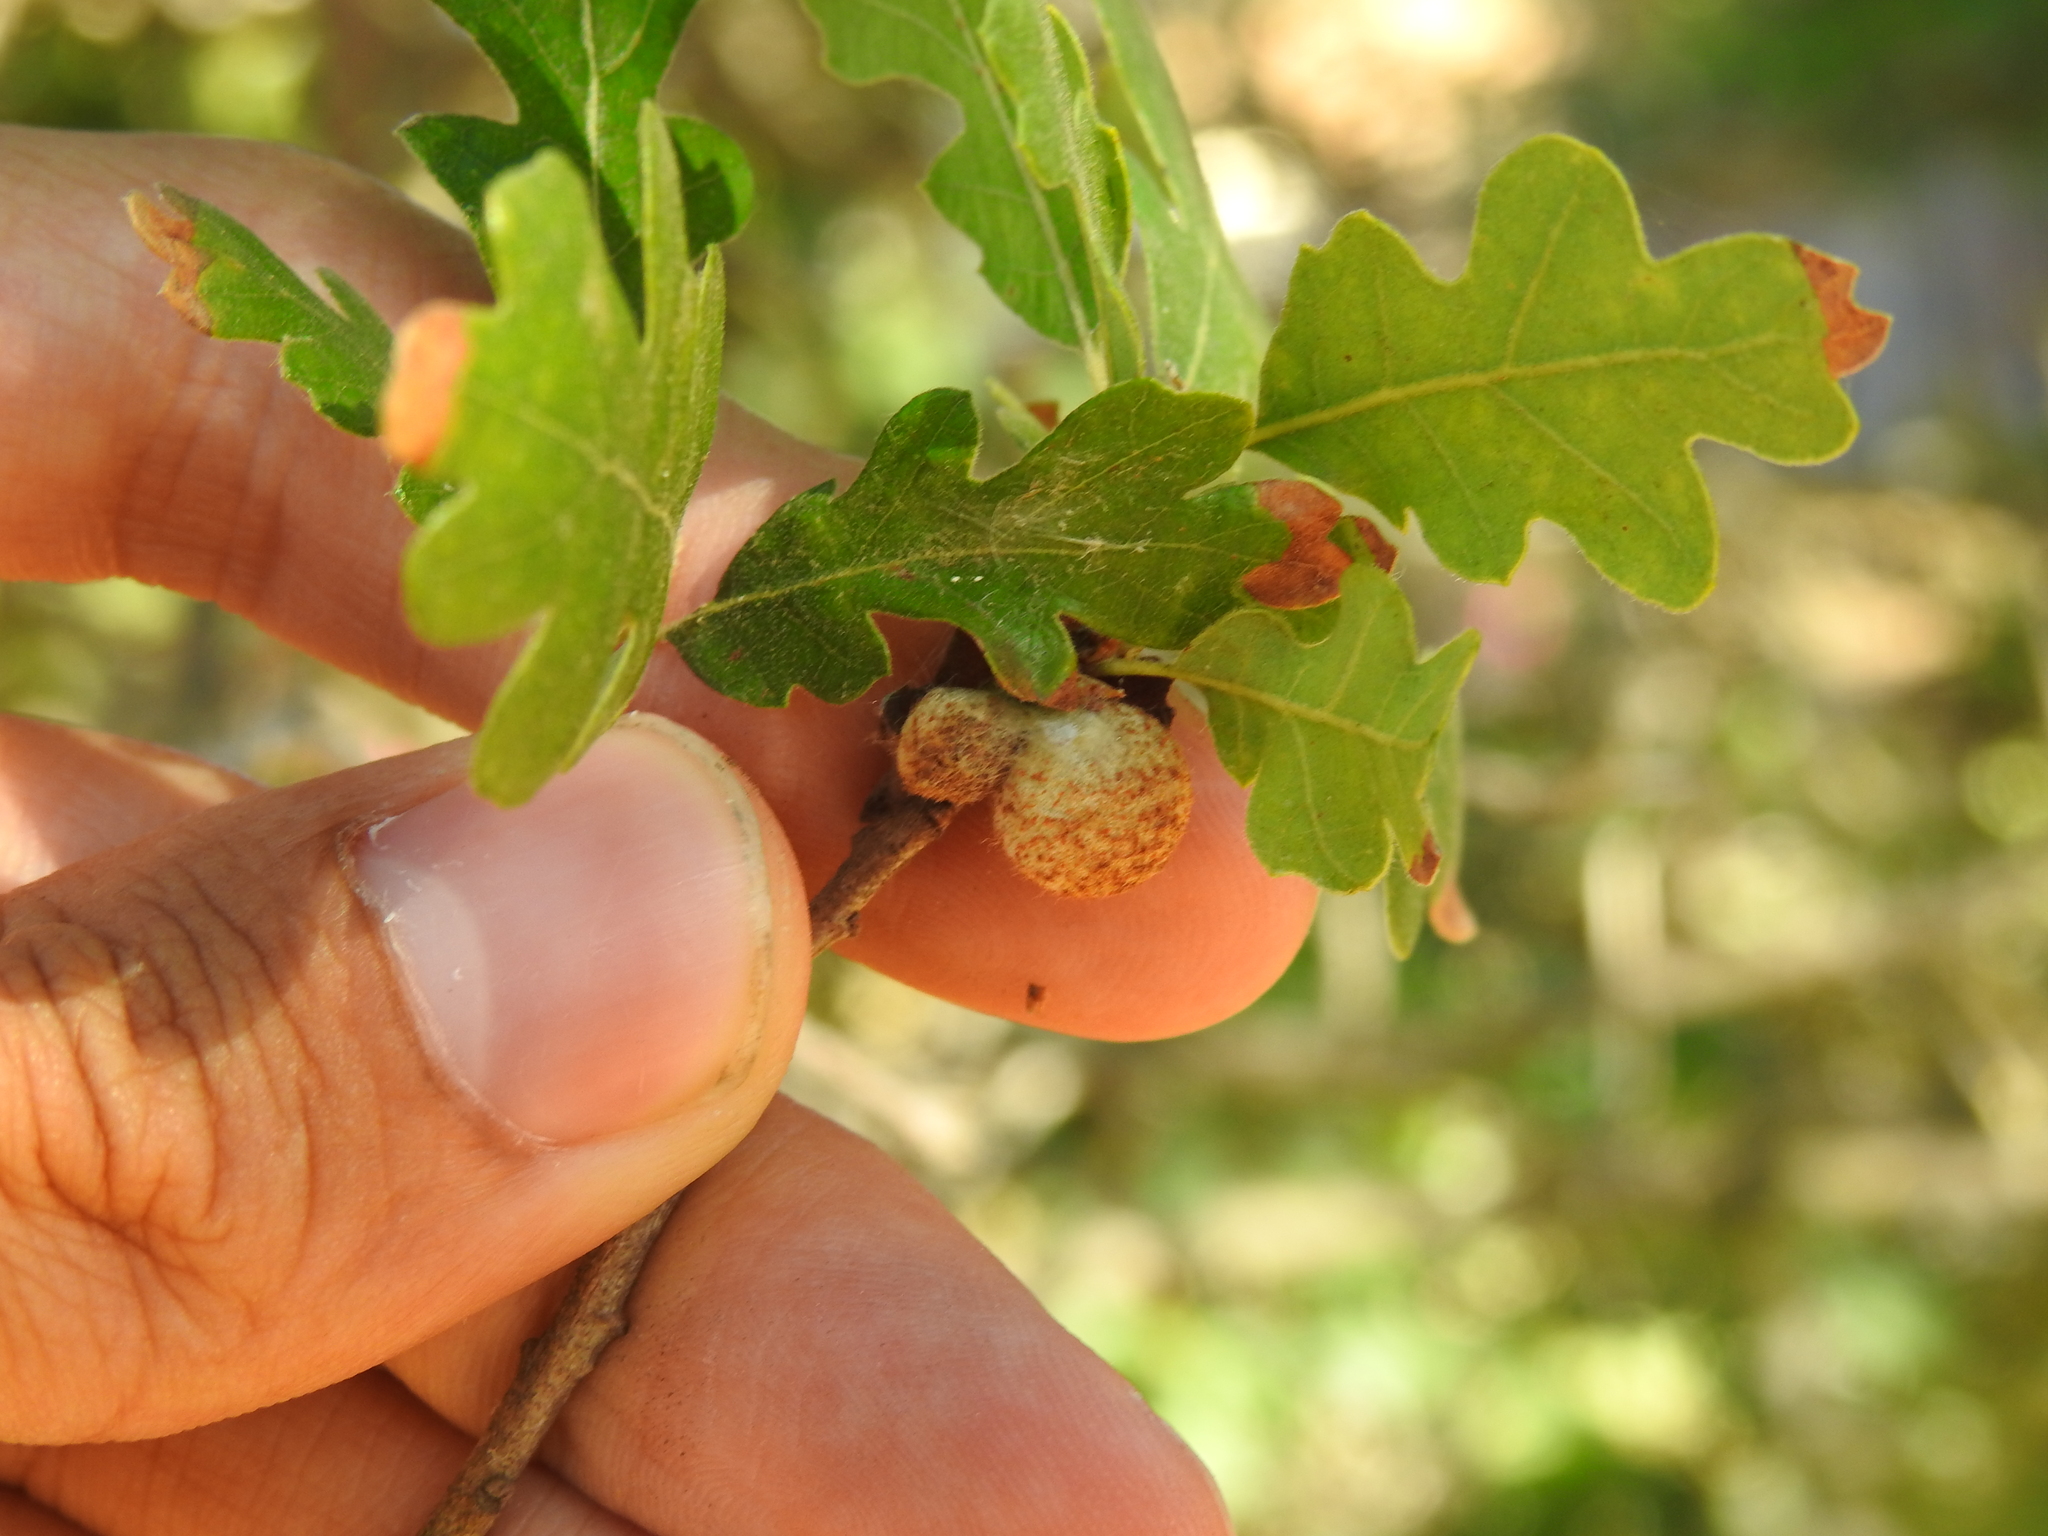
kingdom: Animalia
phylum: Arthropoda
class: Insecta
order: Hymenoptera
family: Cynipidae
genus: Burnettweldia
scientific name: Burnettweldia
